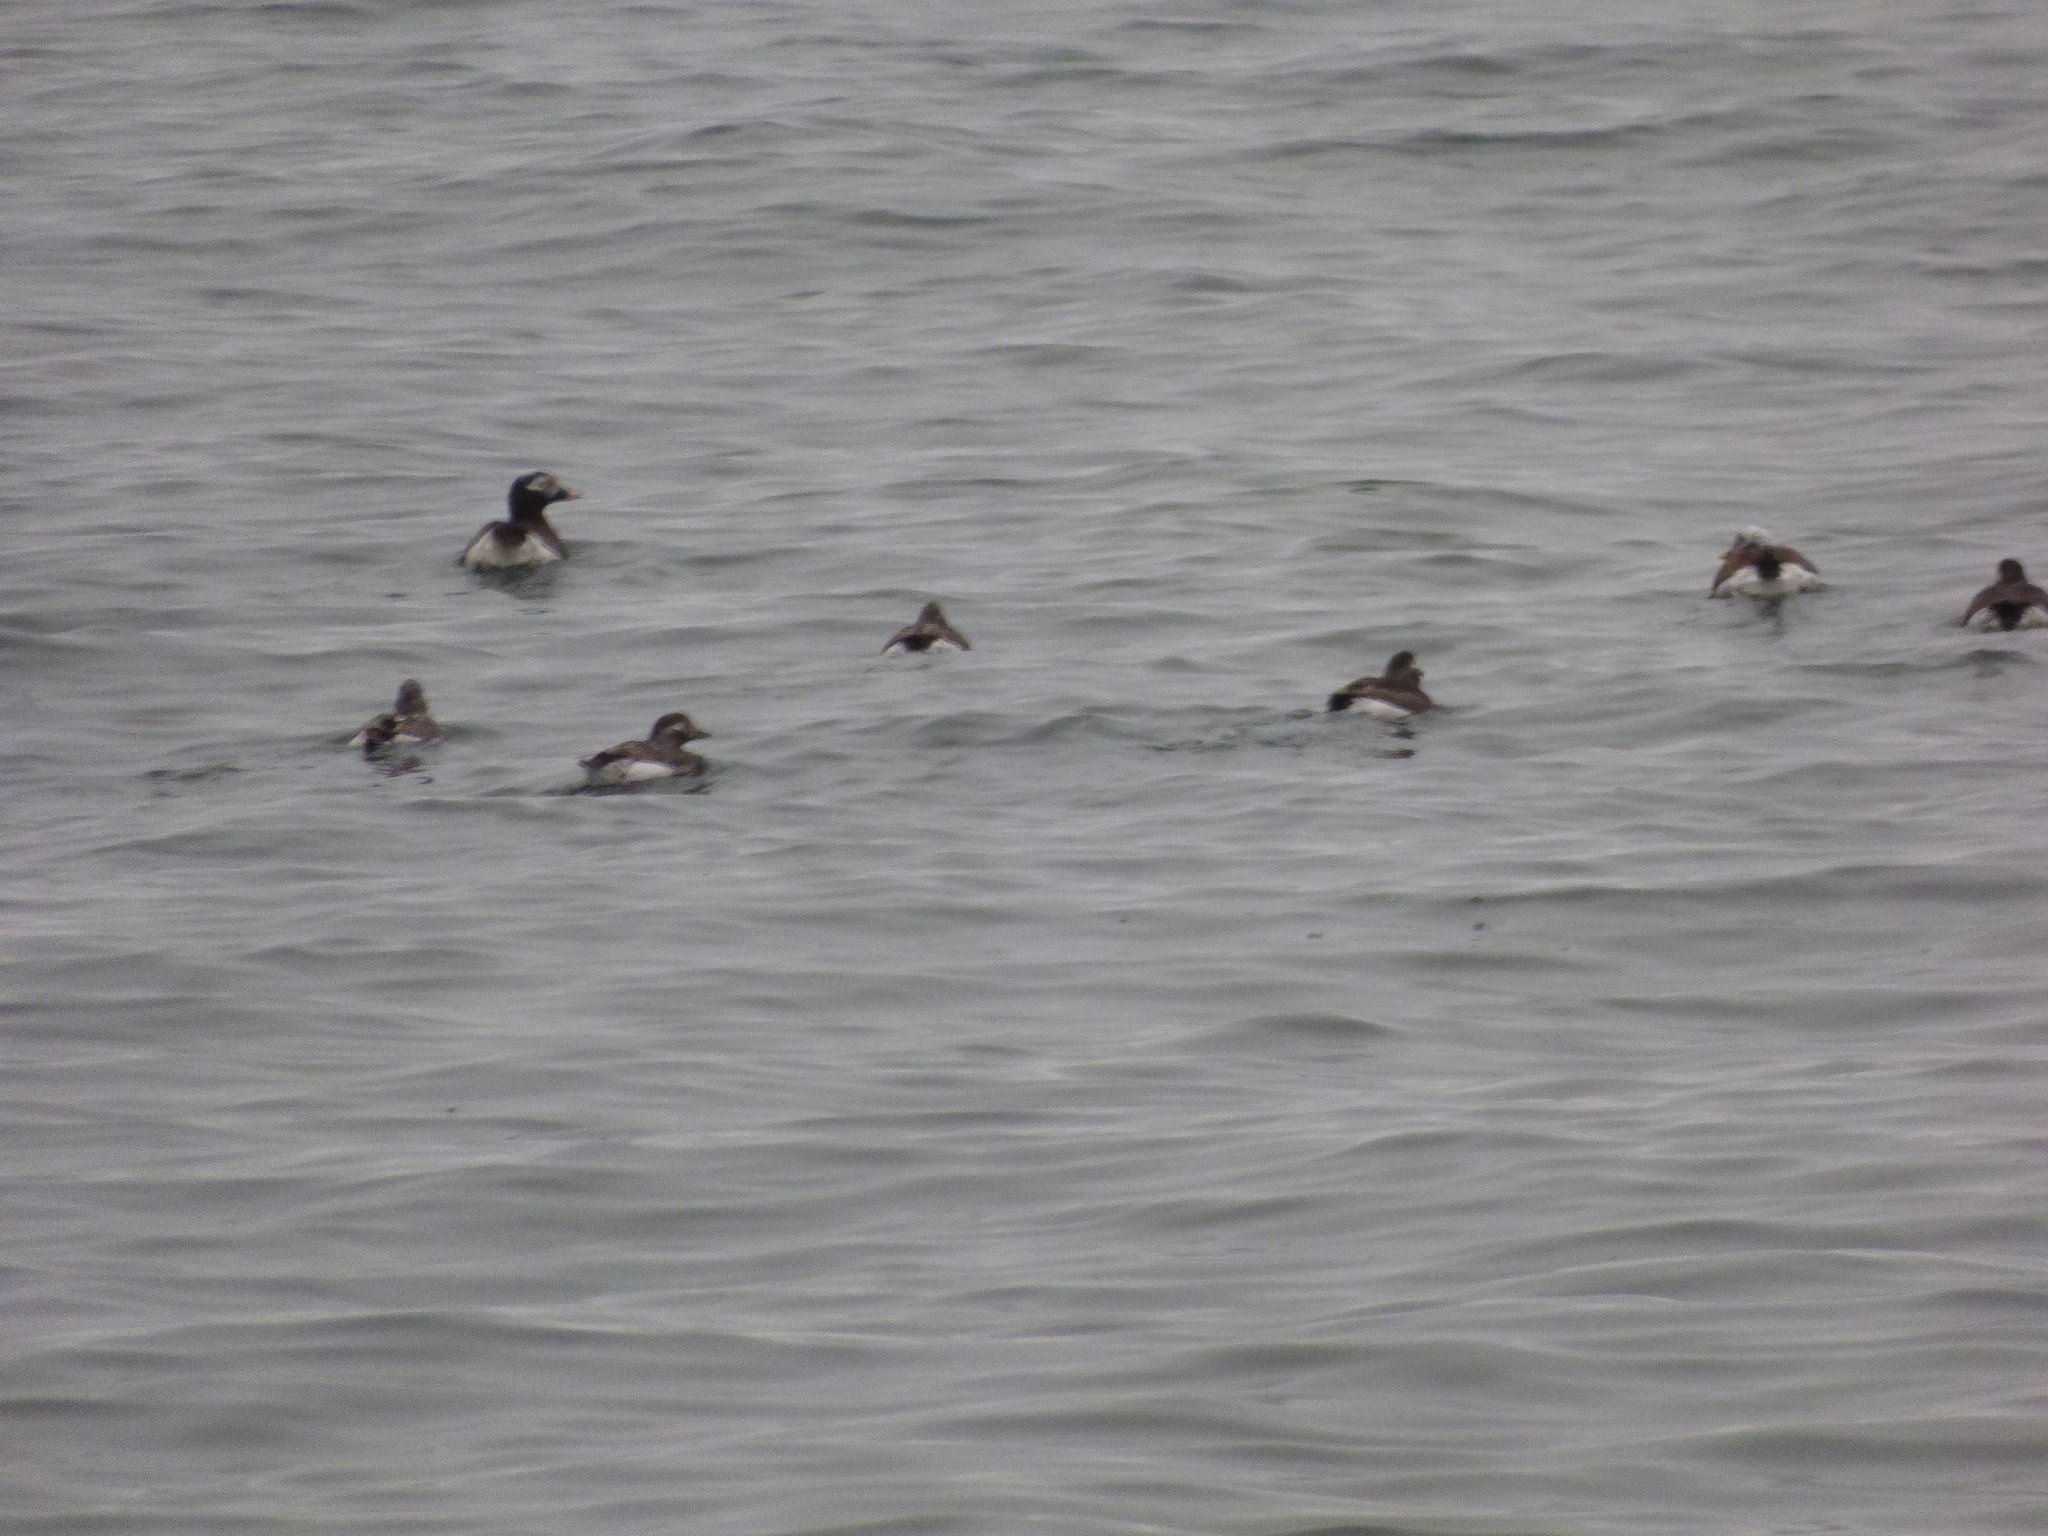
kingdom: Animalia
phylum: Chordata
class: Aves
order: Anseriformes
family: Anatidae
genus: Clangula
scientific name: Clangula hyemalis
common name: Long-tailed duck
